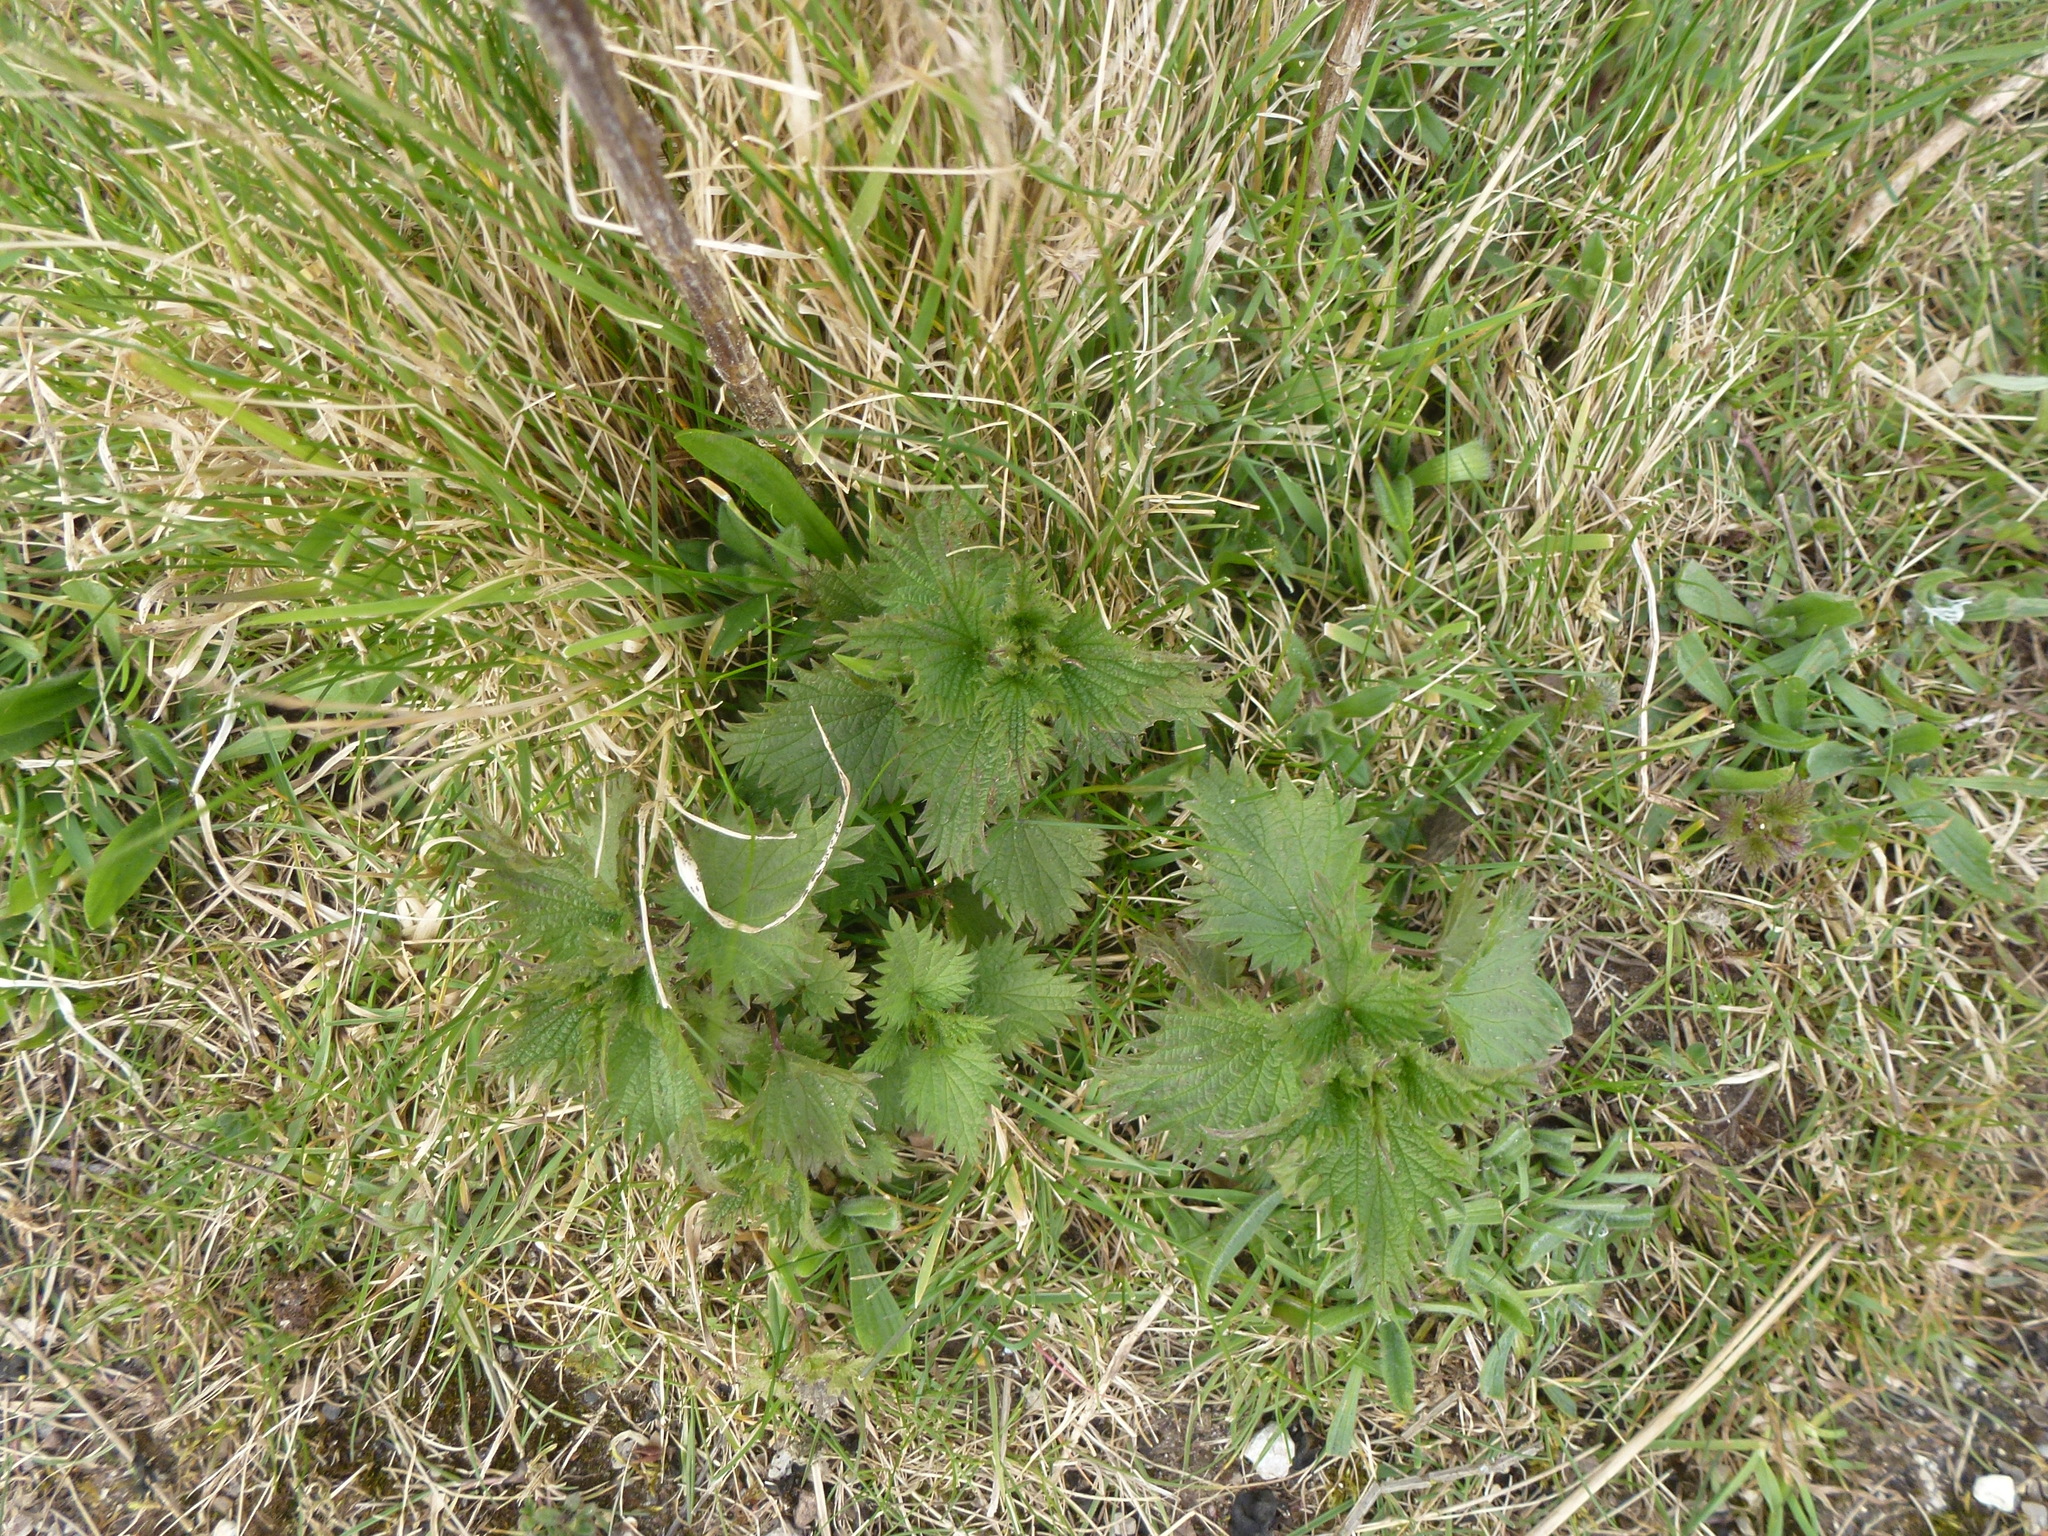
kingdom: Plantae
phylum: Tracheophyta
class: Magnoliopsida
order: Rosales
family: Urticaceae
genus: Urtica
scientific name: Urtica dioica
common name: Common nettle
